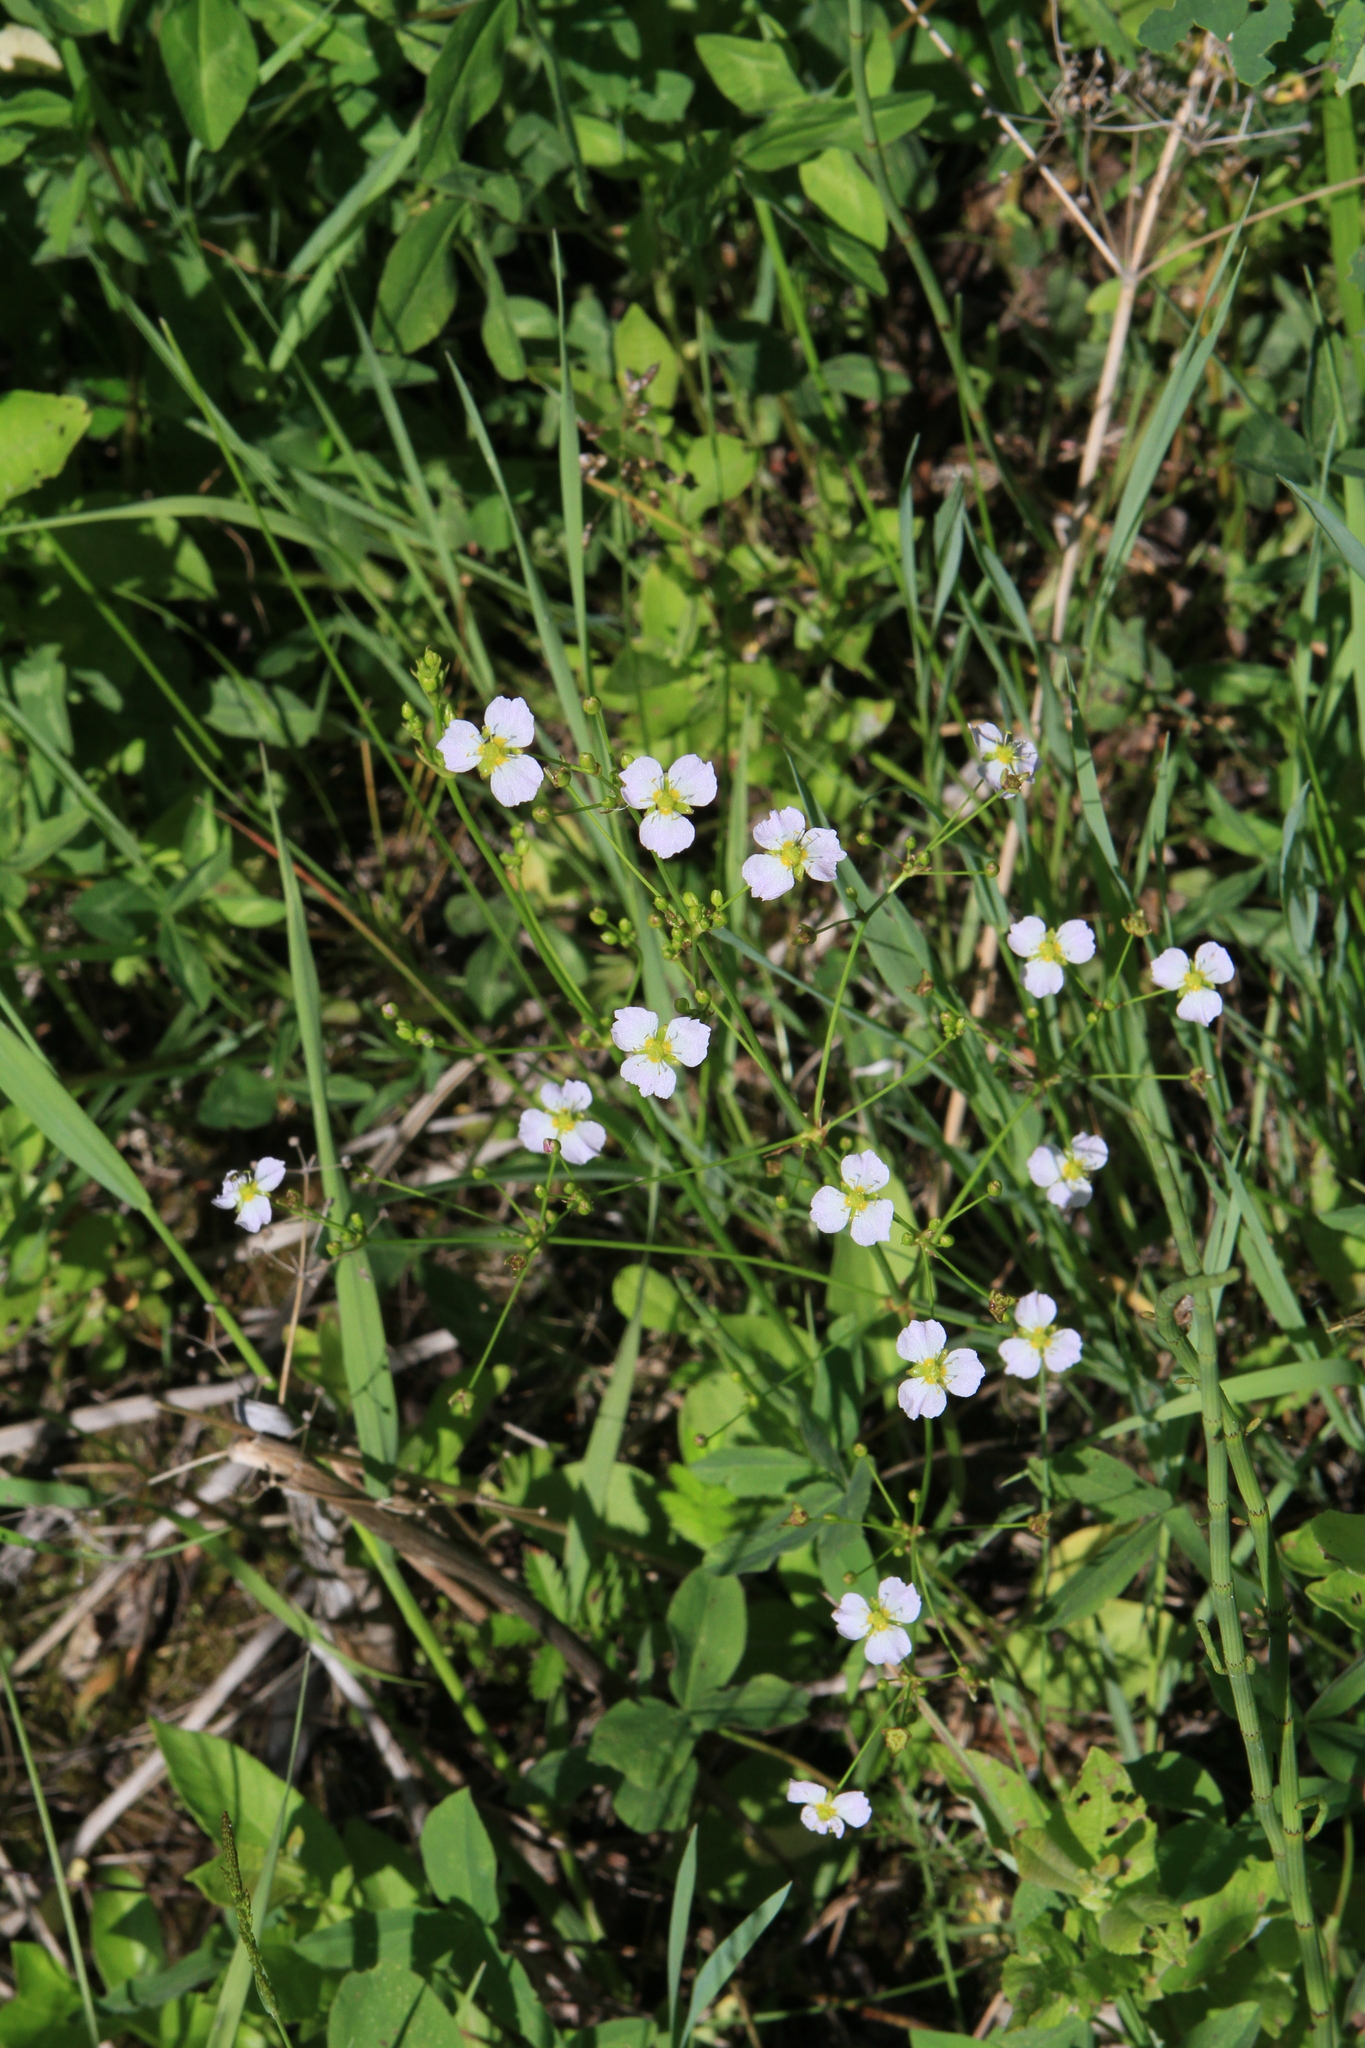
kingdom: Plantae
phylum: Tracheophyta
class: Liliopsida
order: Alismatales
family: Alismataceae
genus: Alisma
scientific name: Alisma plantago-aquatica
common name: Water-plantain
